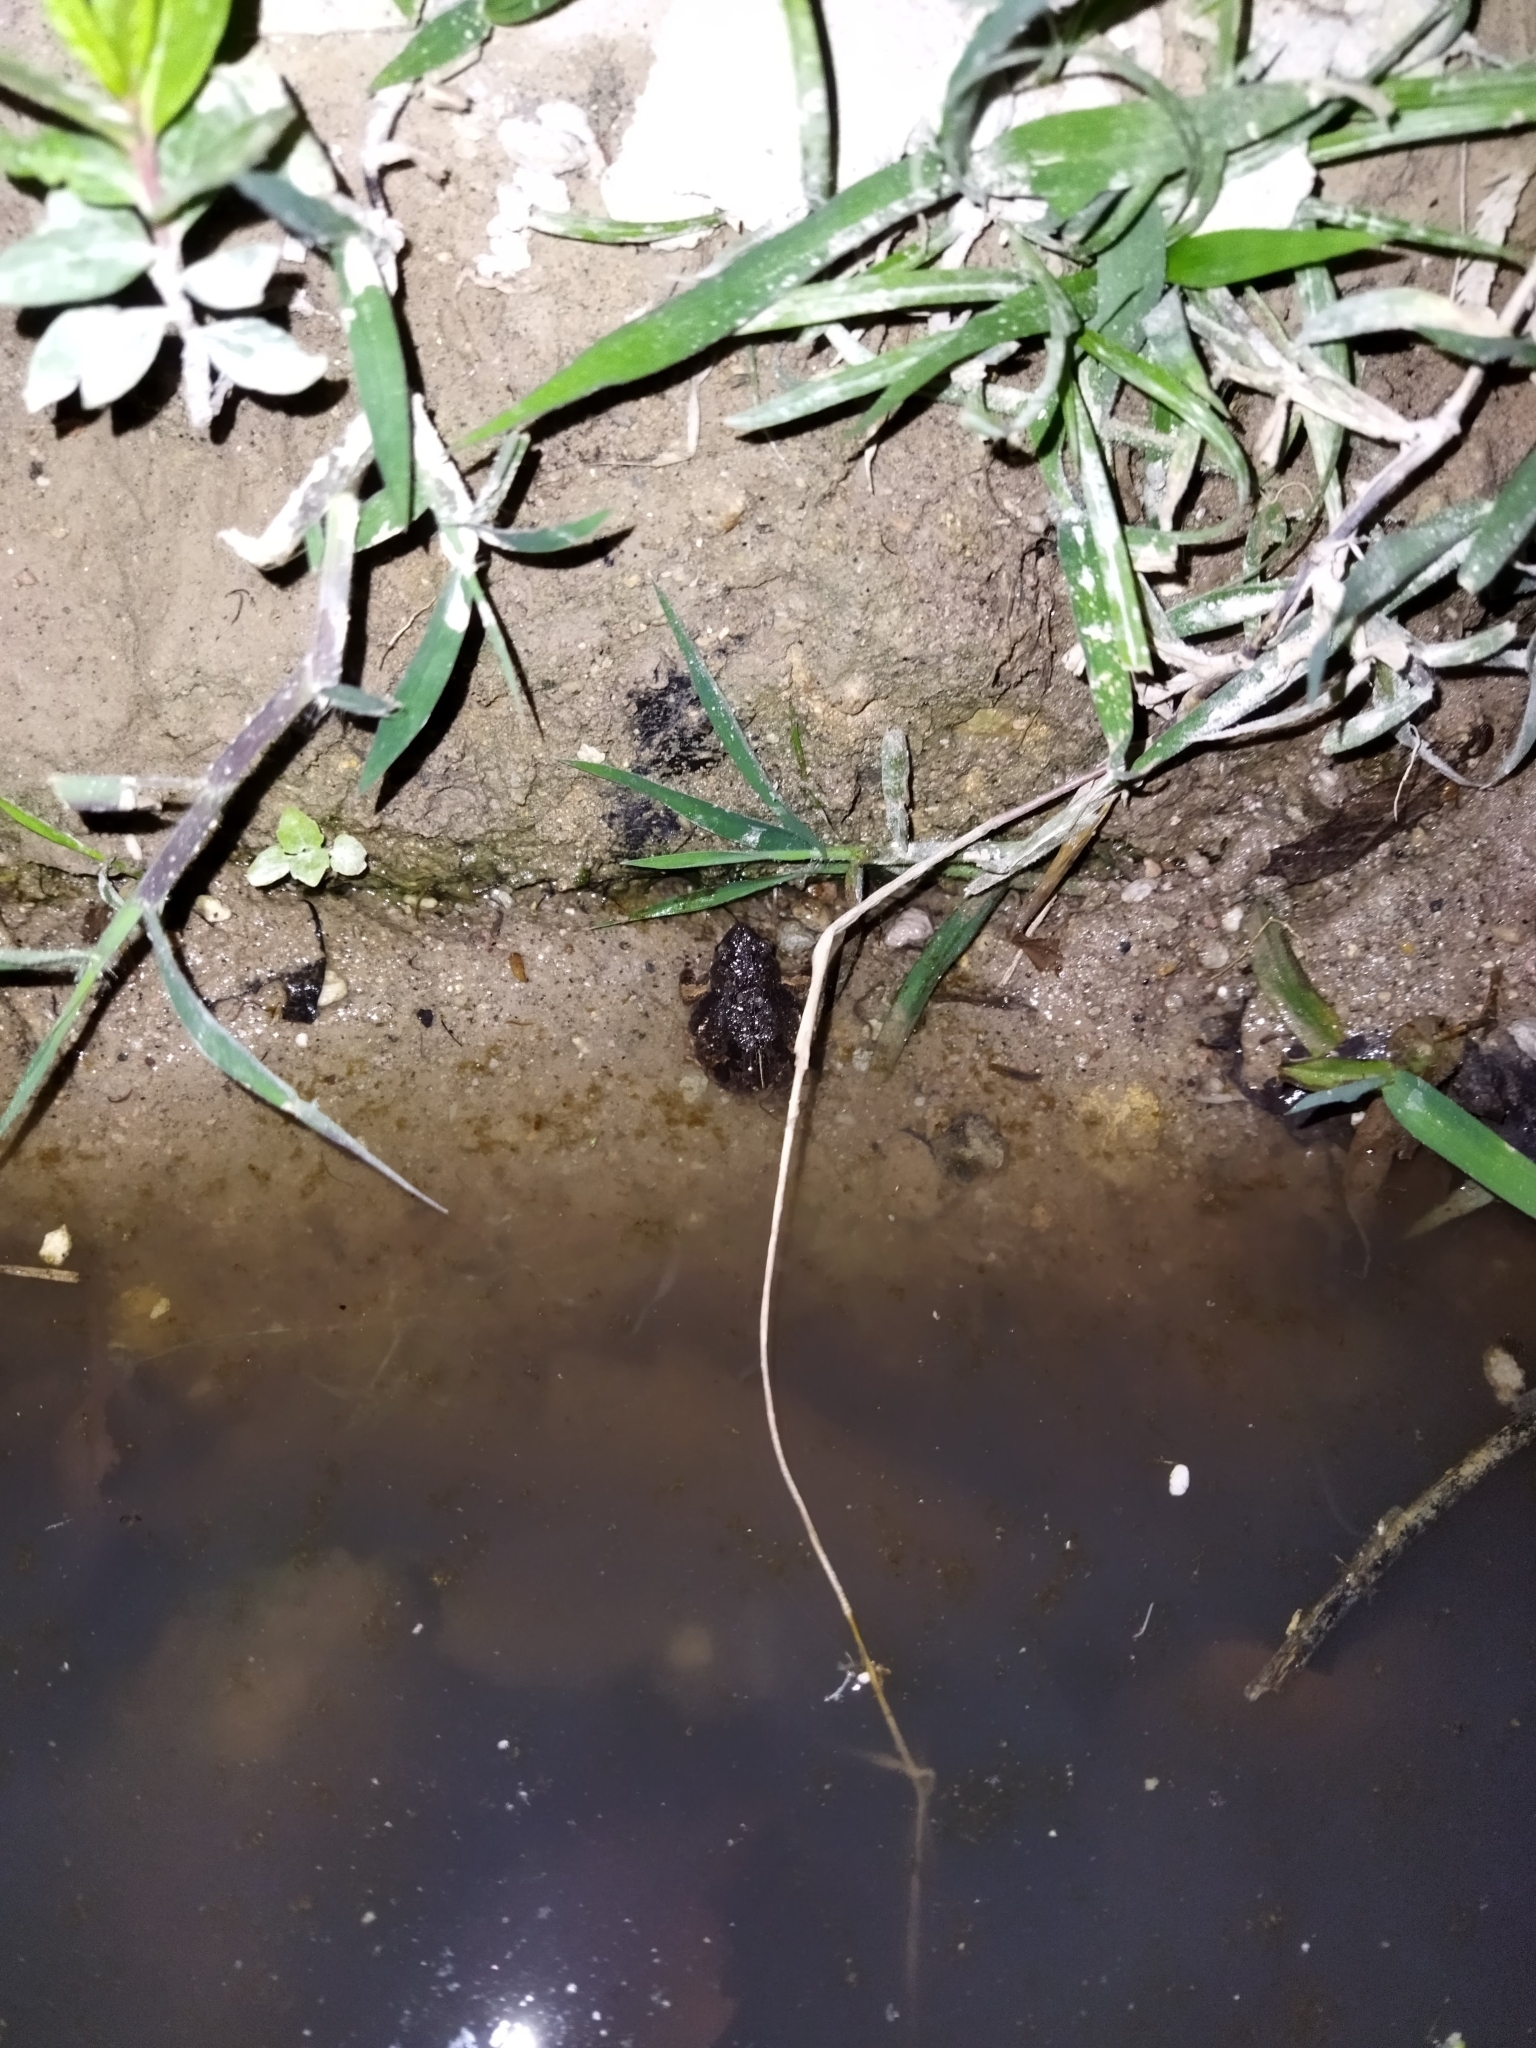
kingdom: Animalia
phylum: Chordata
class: Amphibia
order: Anura
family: Leptodactylidae
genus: Engystomops
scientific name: Engystomops pustulosus
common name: Tungara frog
